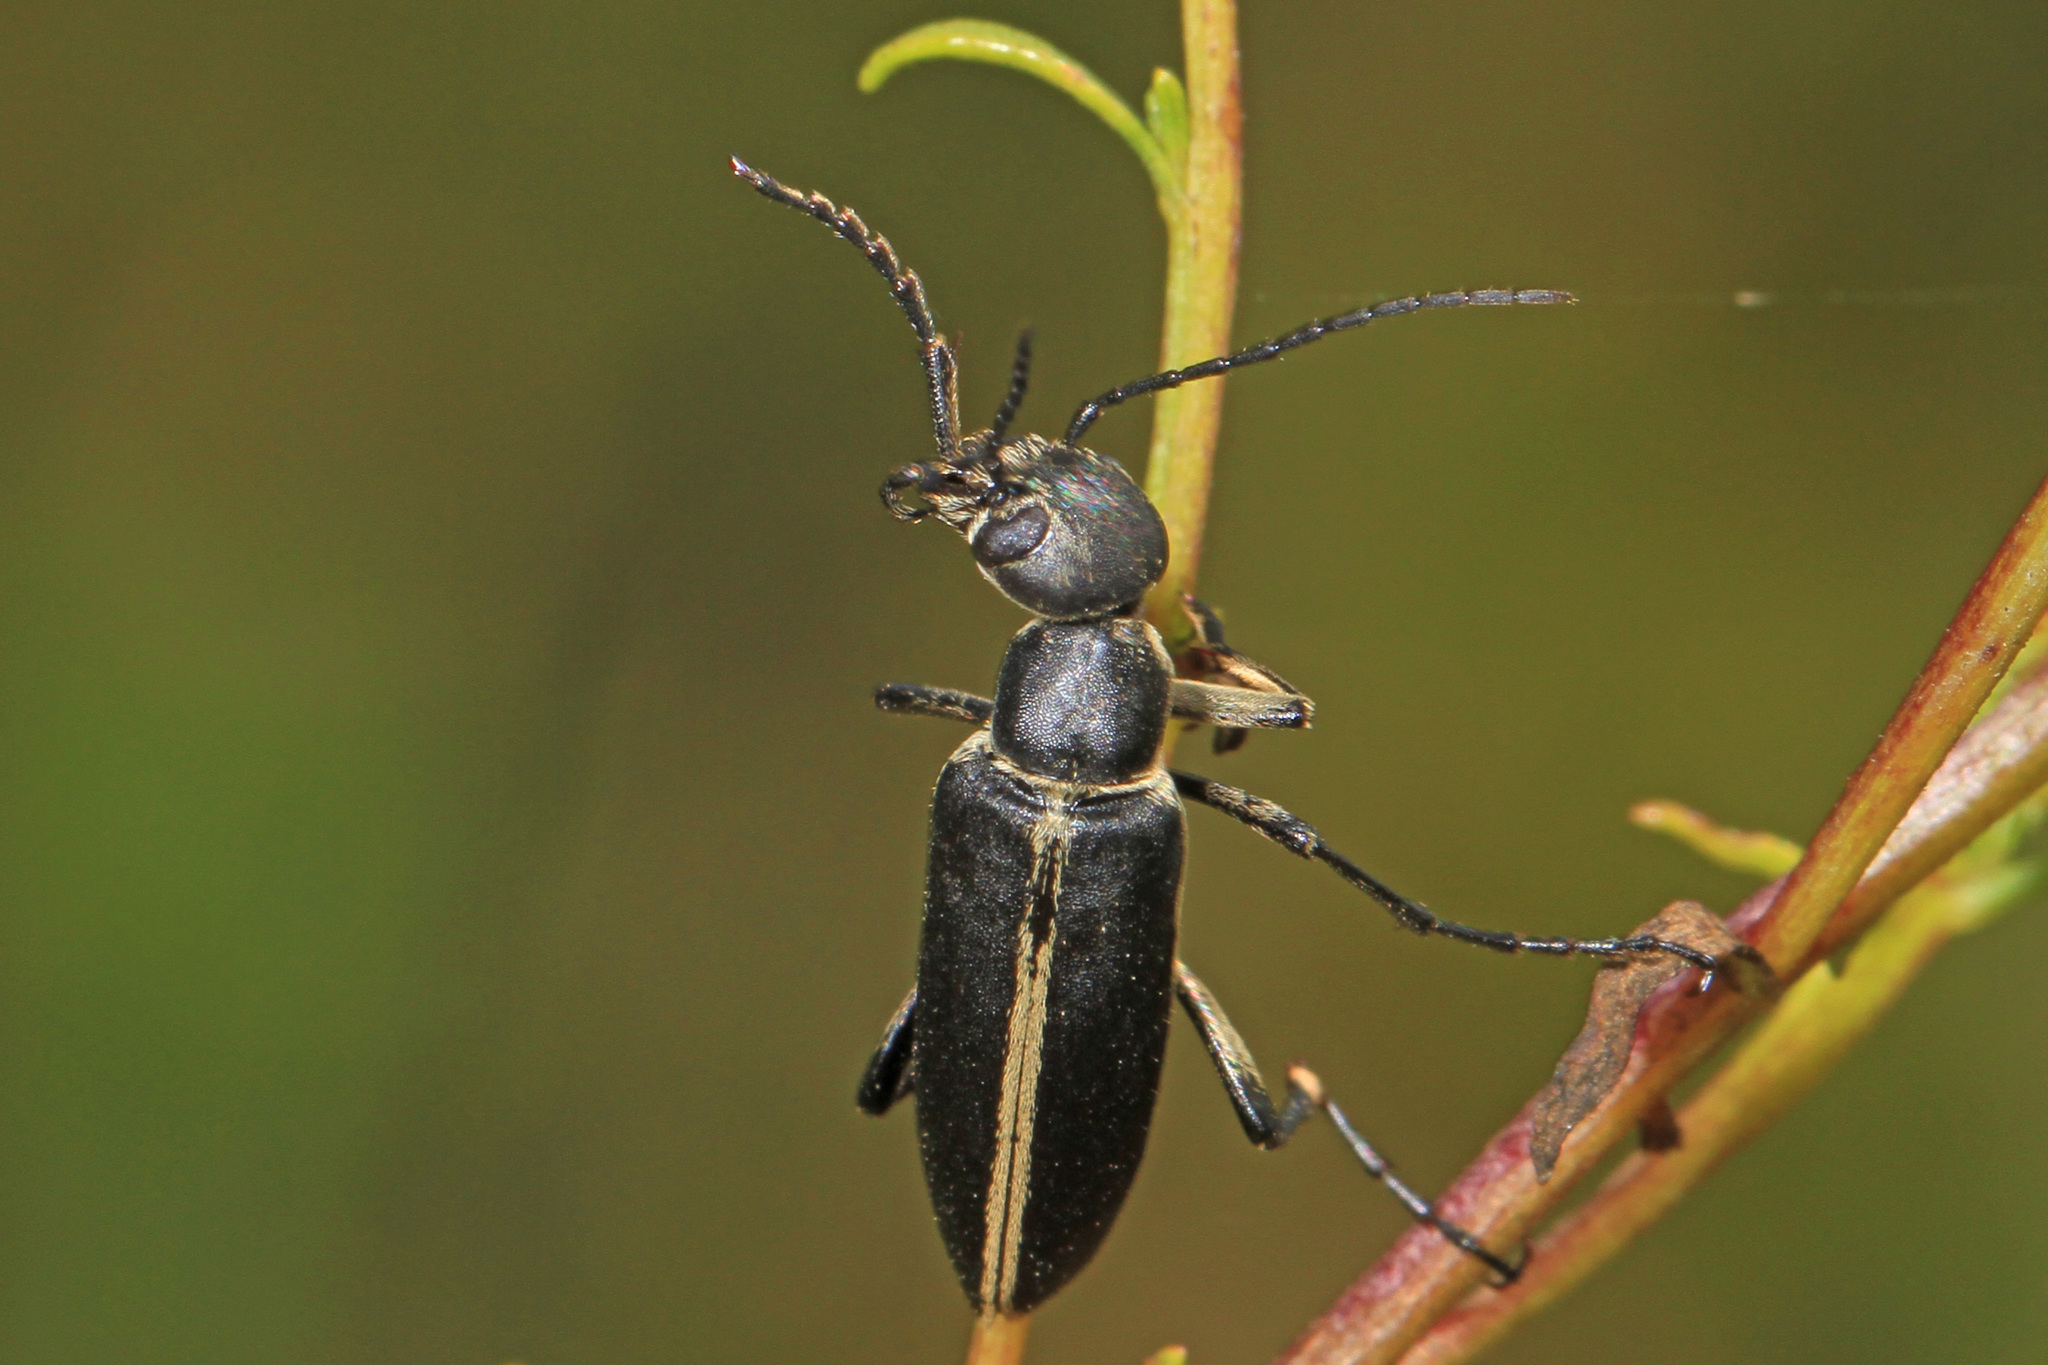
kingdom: Animalia
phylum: Arthropoda
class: Insecta
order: Coleoptera
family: Meloidae
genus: Epicauta
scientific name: Epicauta funebris
